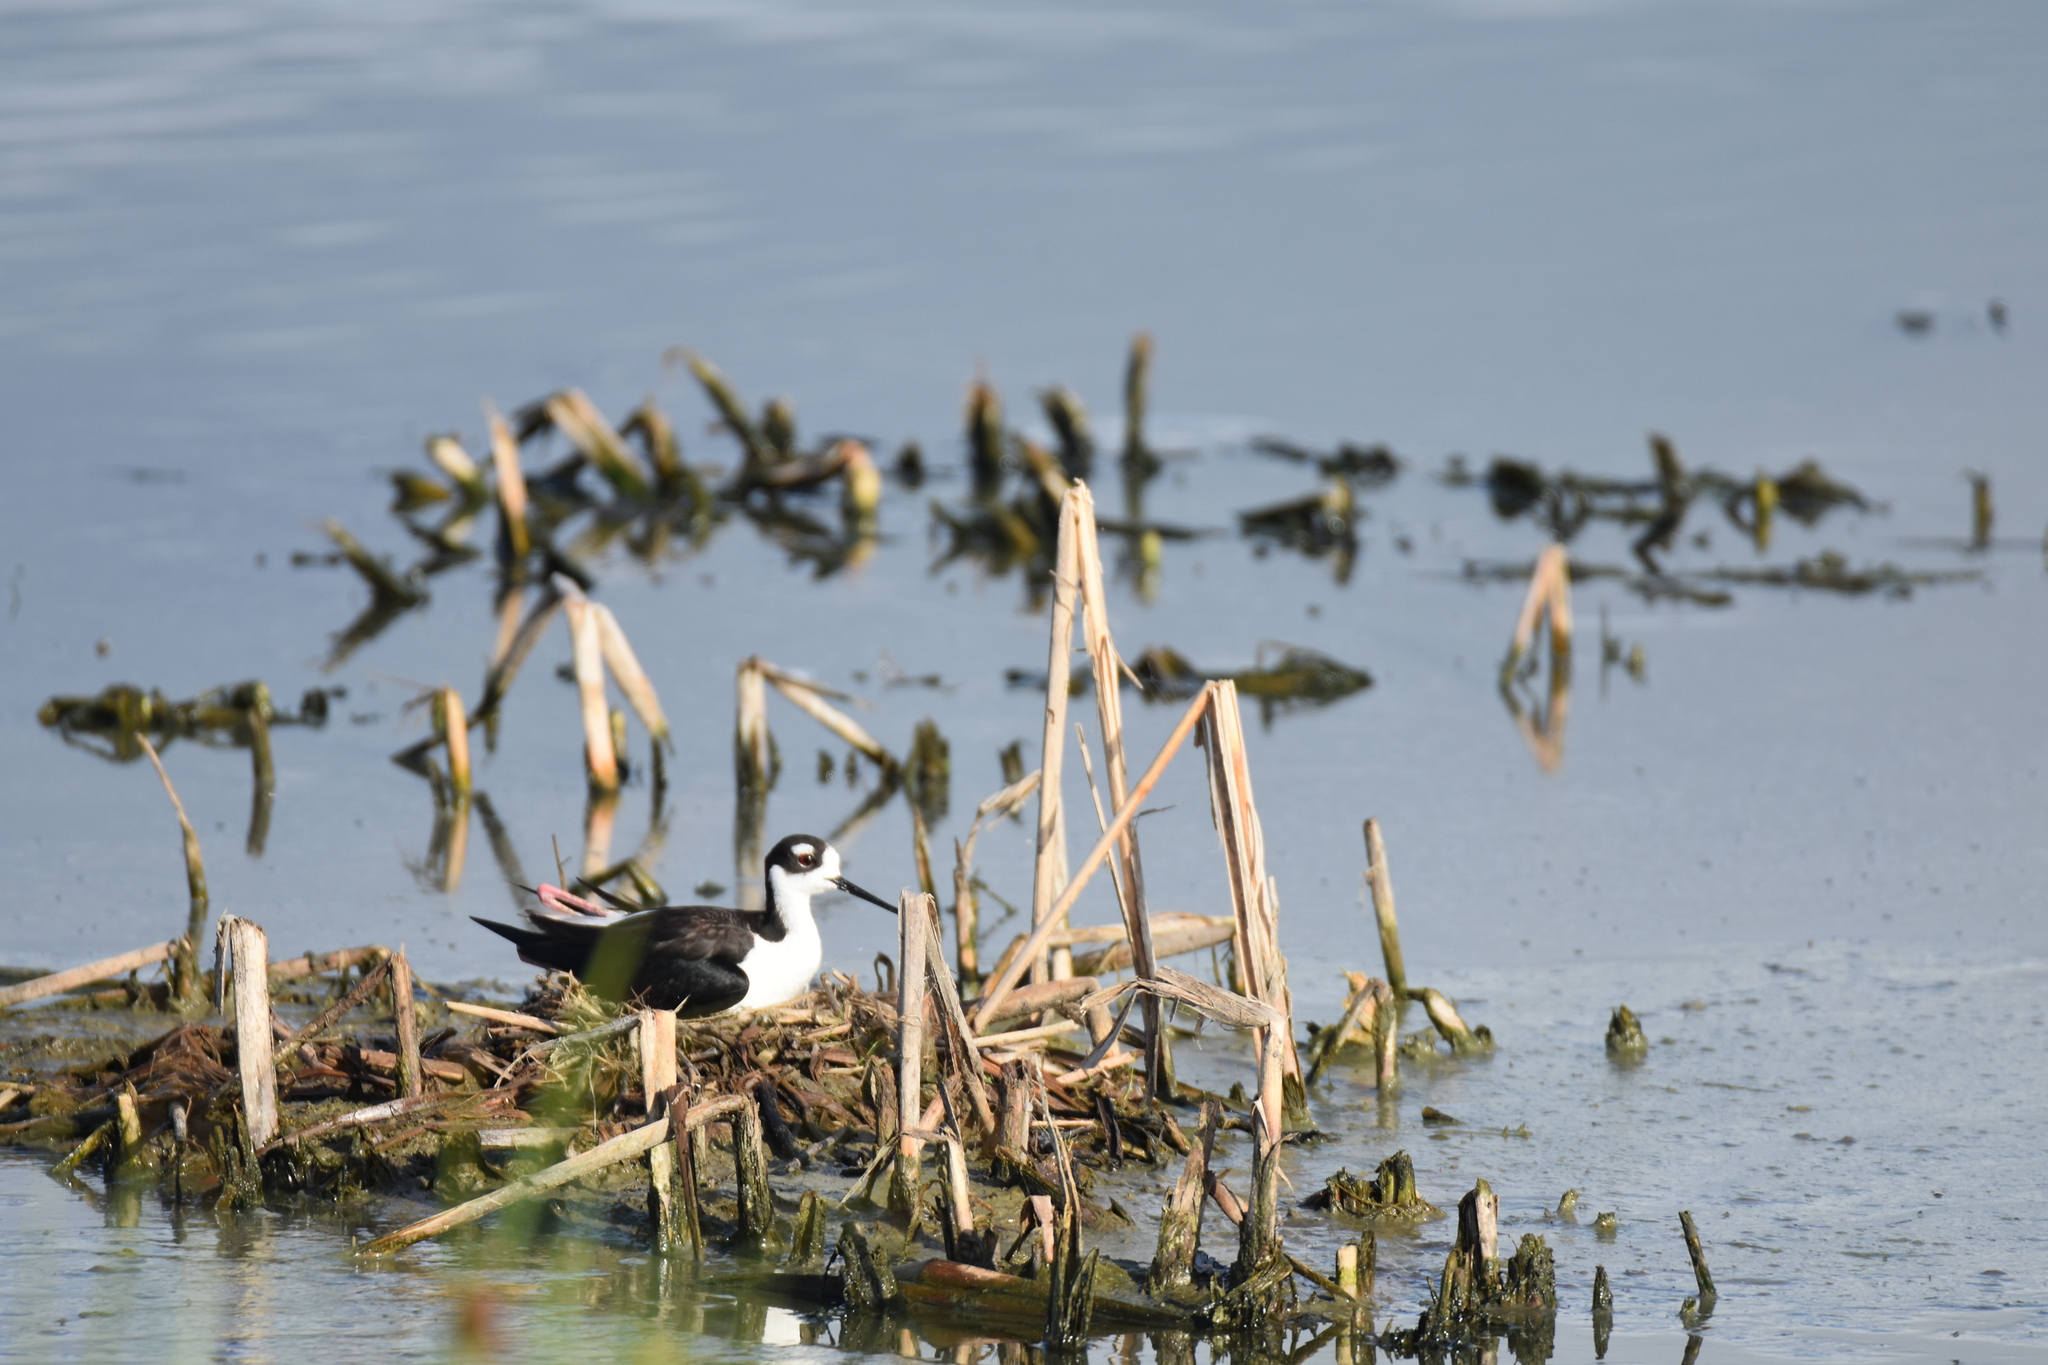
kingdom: Animalia
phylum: Chordata
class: Aves
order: Charadriiformes
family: Recurvirostridae
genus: Himantopus
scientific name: Himantopus mexicanus
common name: Black-necked stilt
